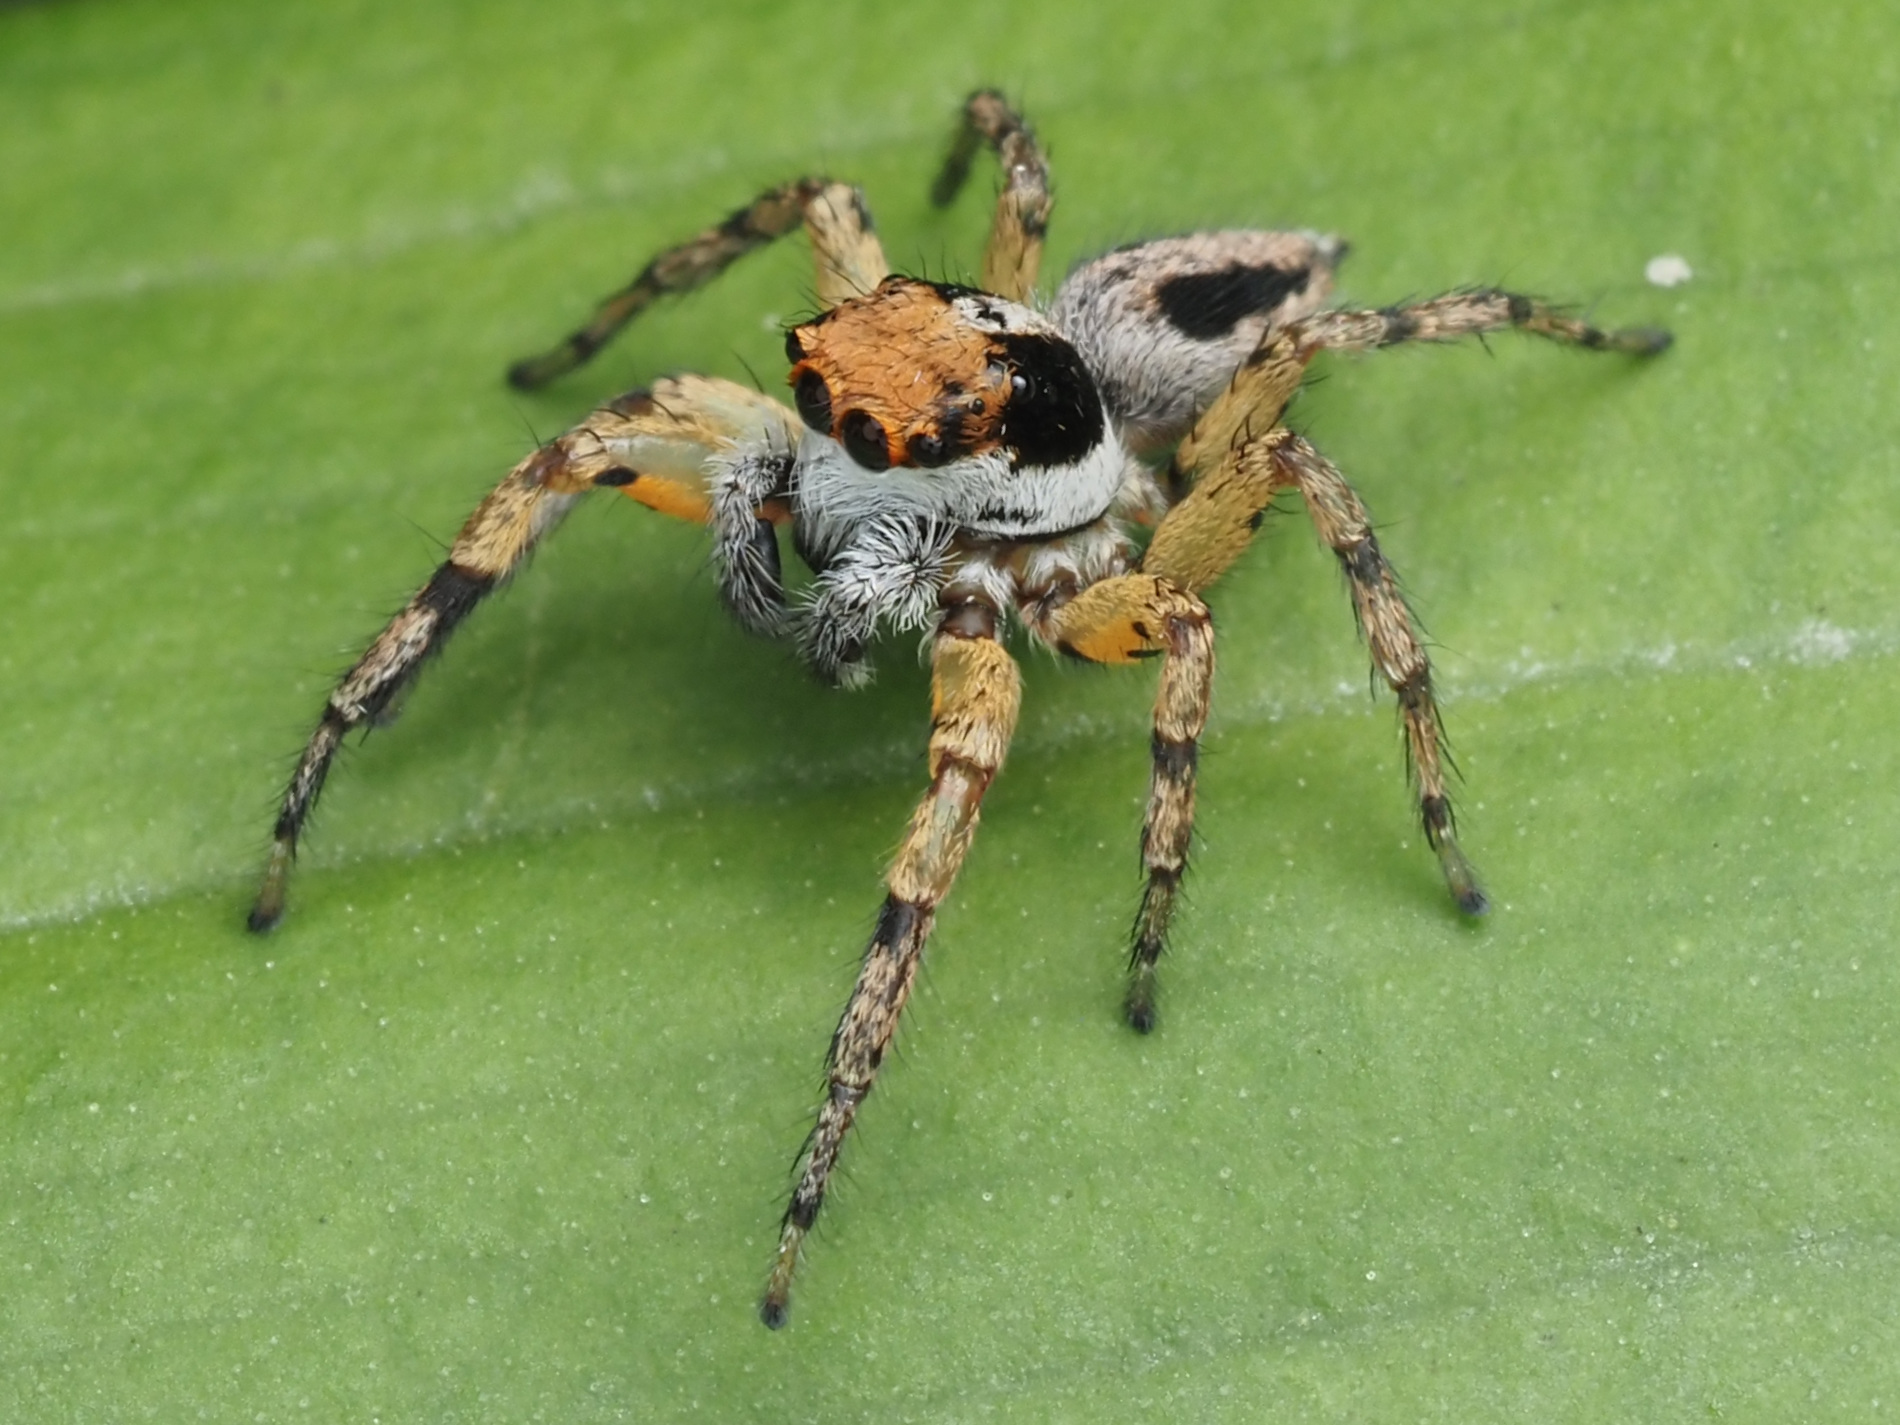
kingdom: Animalia
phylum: Arthropoda
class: Arachnida
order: Araneae
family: Salticidae
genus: Tarkas
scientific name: Tarkas maculatipes
